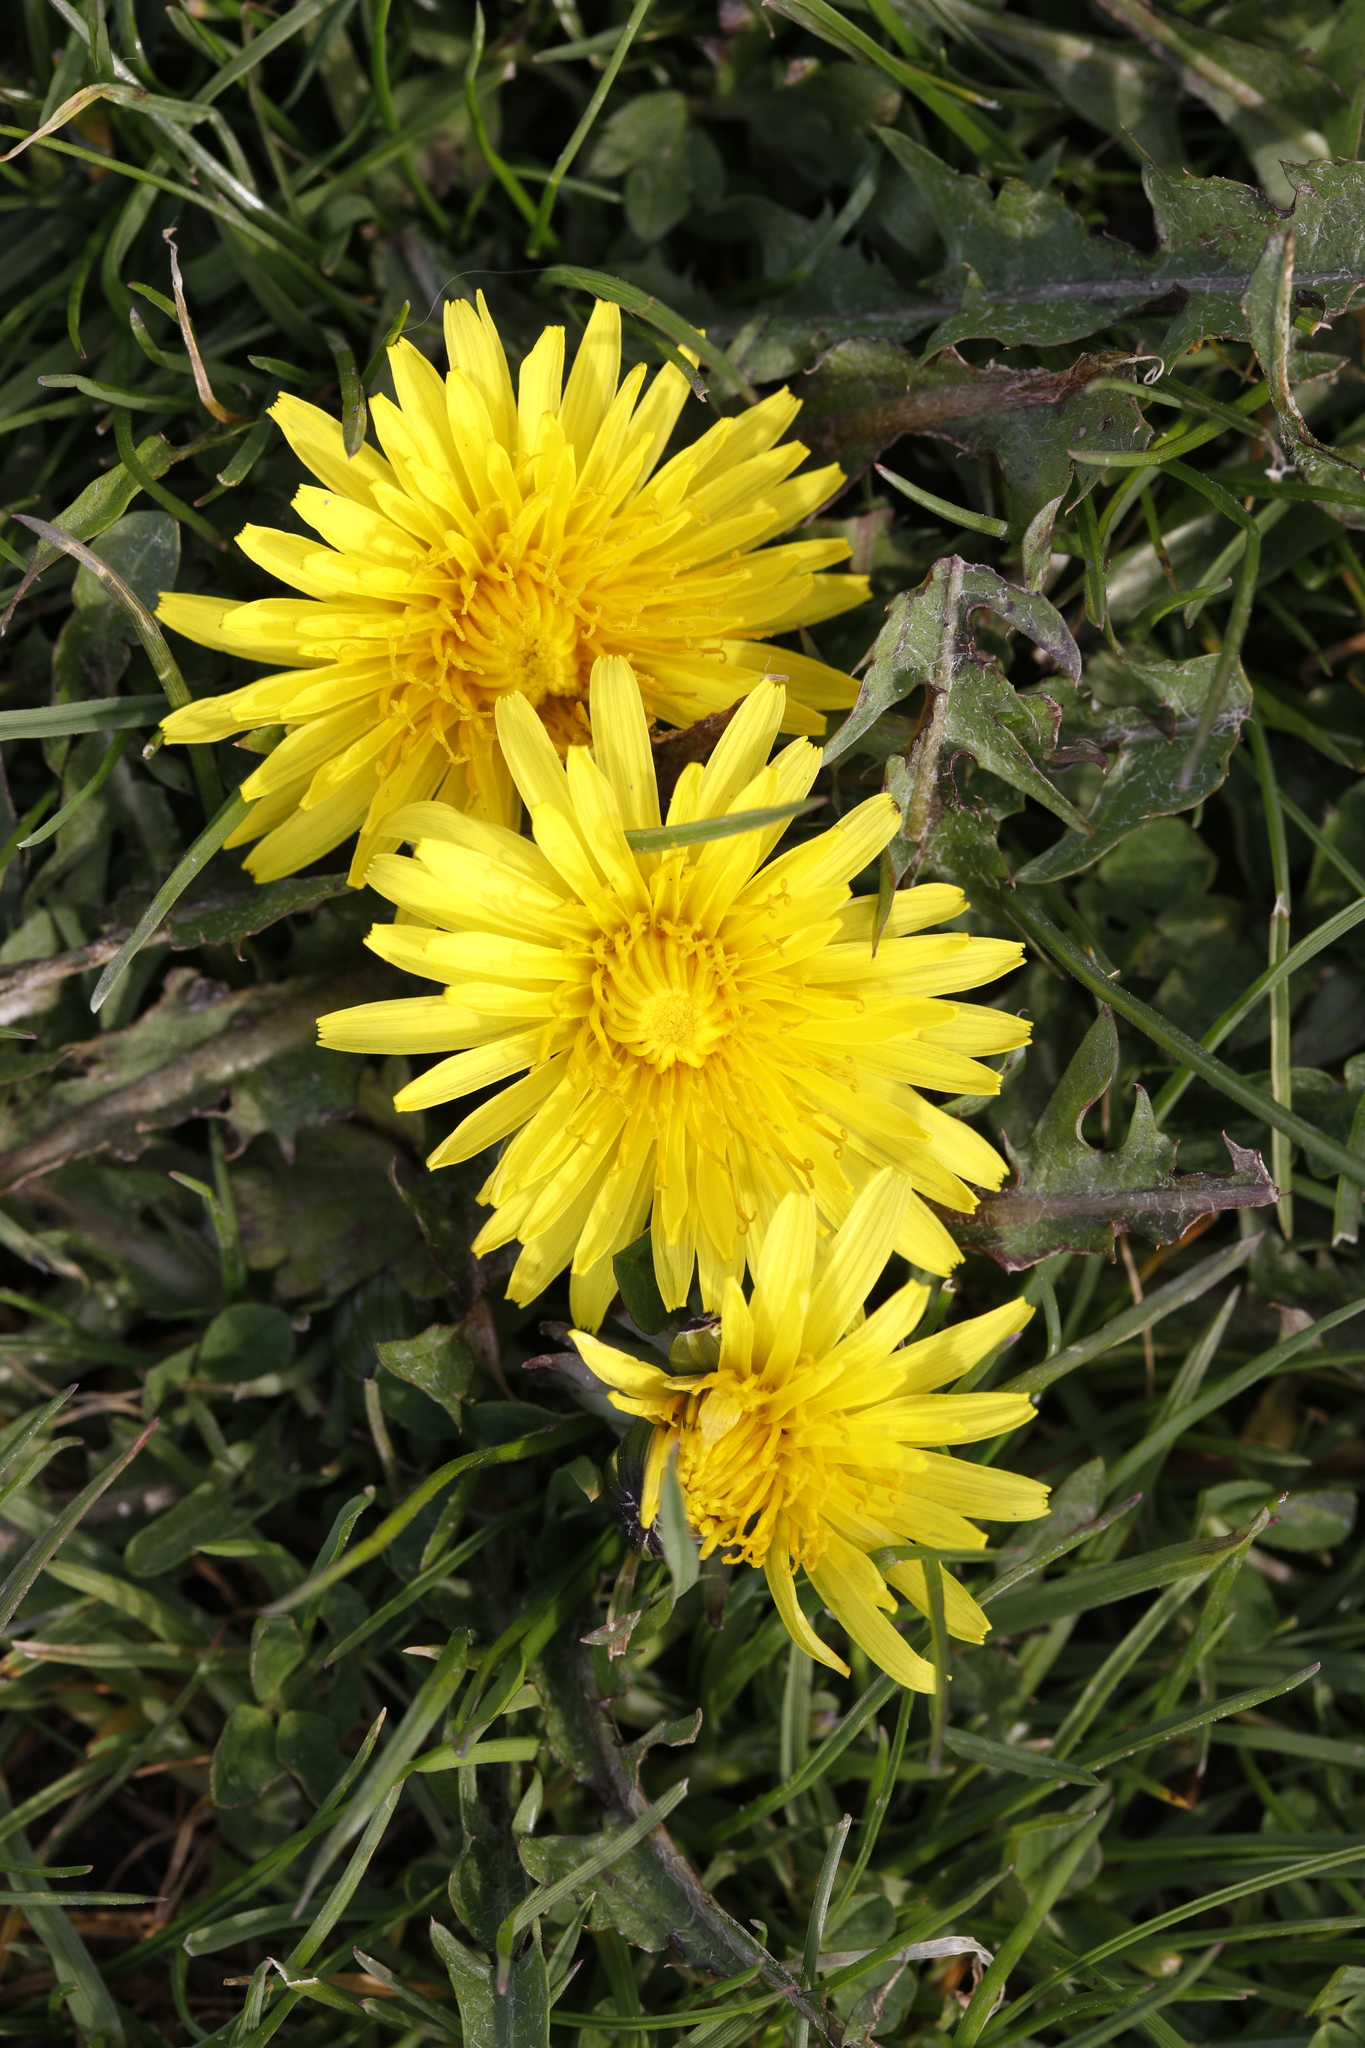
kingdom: Plantae
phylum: Tracheophyta
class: Magnoliopsida
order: Asterales
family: Asteraceae
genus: Taraxacum
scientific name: Taraxacum officinale
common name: Common dandelion
